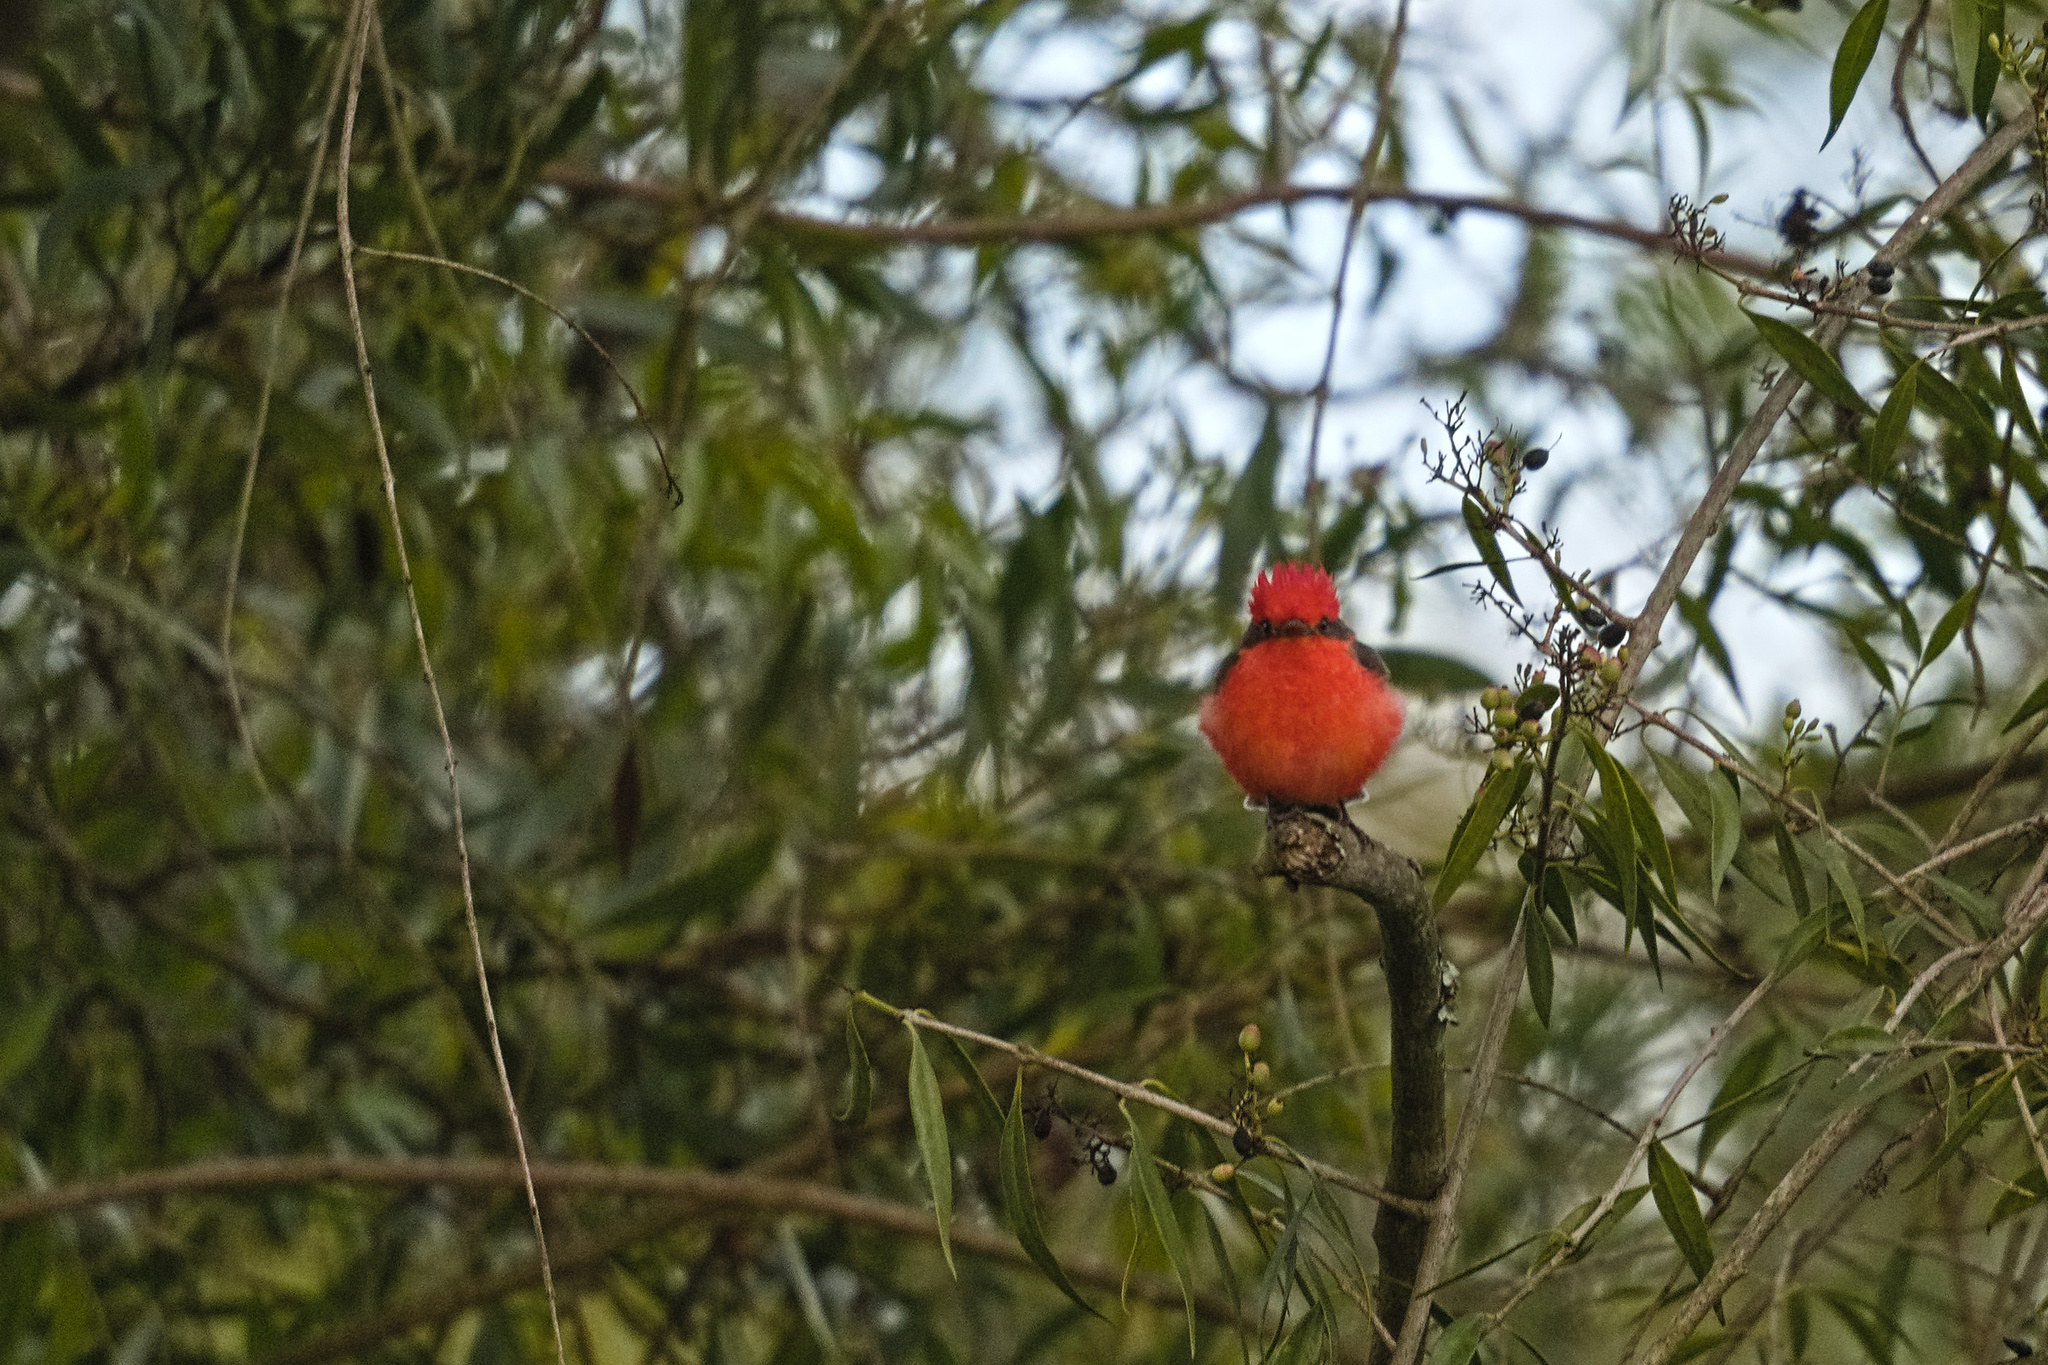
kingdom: Animalia
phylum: Chordata
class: Aves
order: Passeriformes
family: Tyrannidae
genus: Pyrocephalus
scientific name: Pyrocephalus rubinus
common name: Vermilion flycatcher
